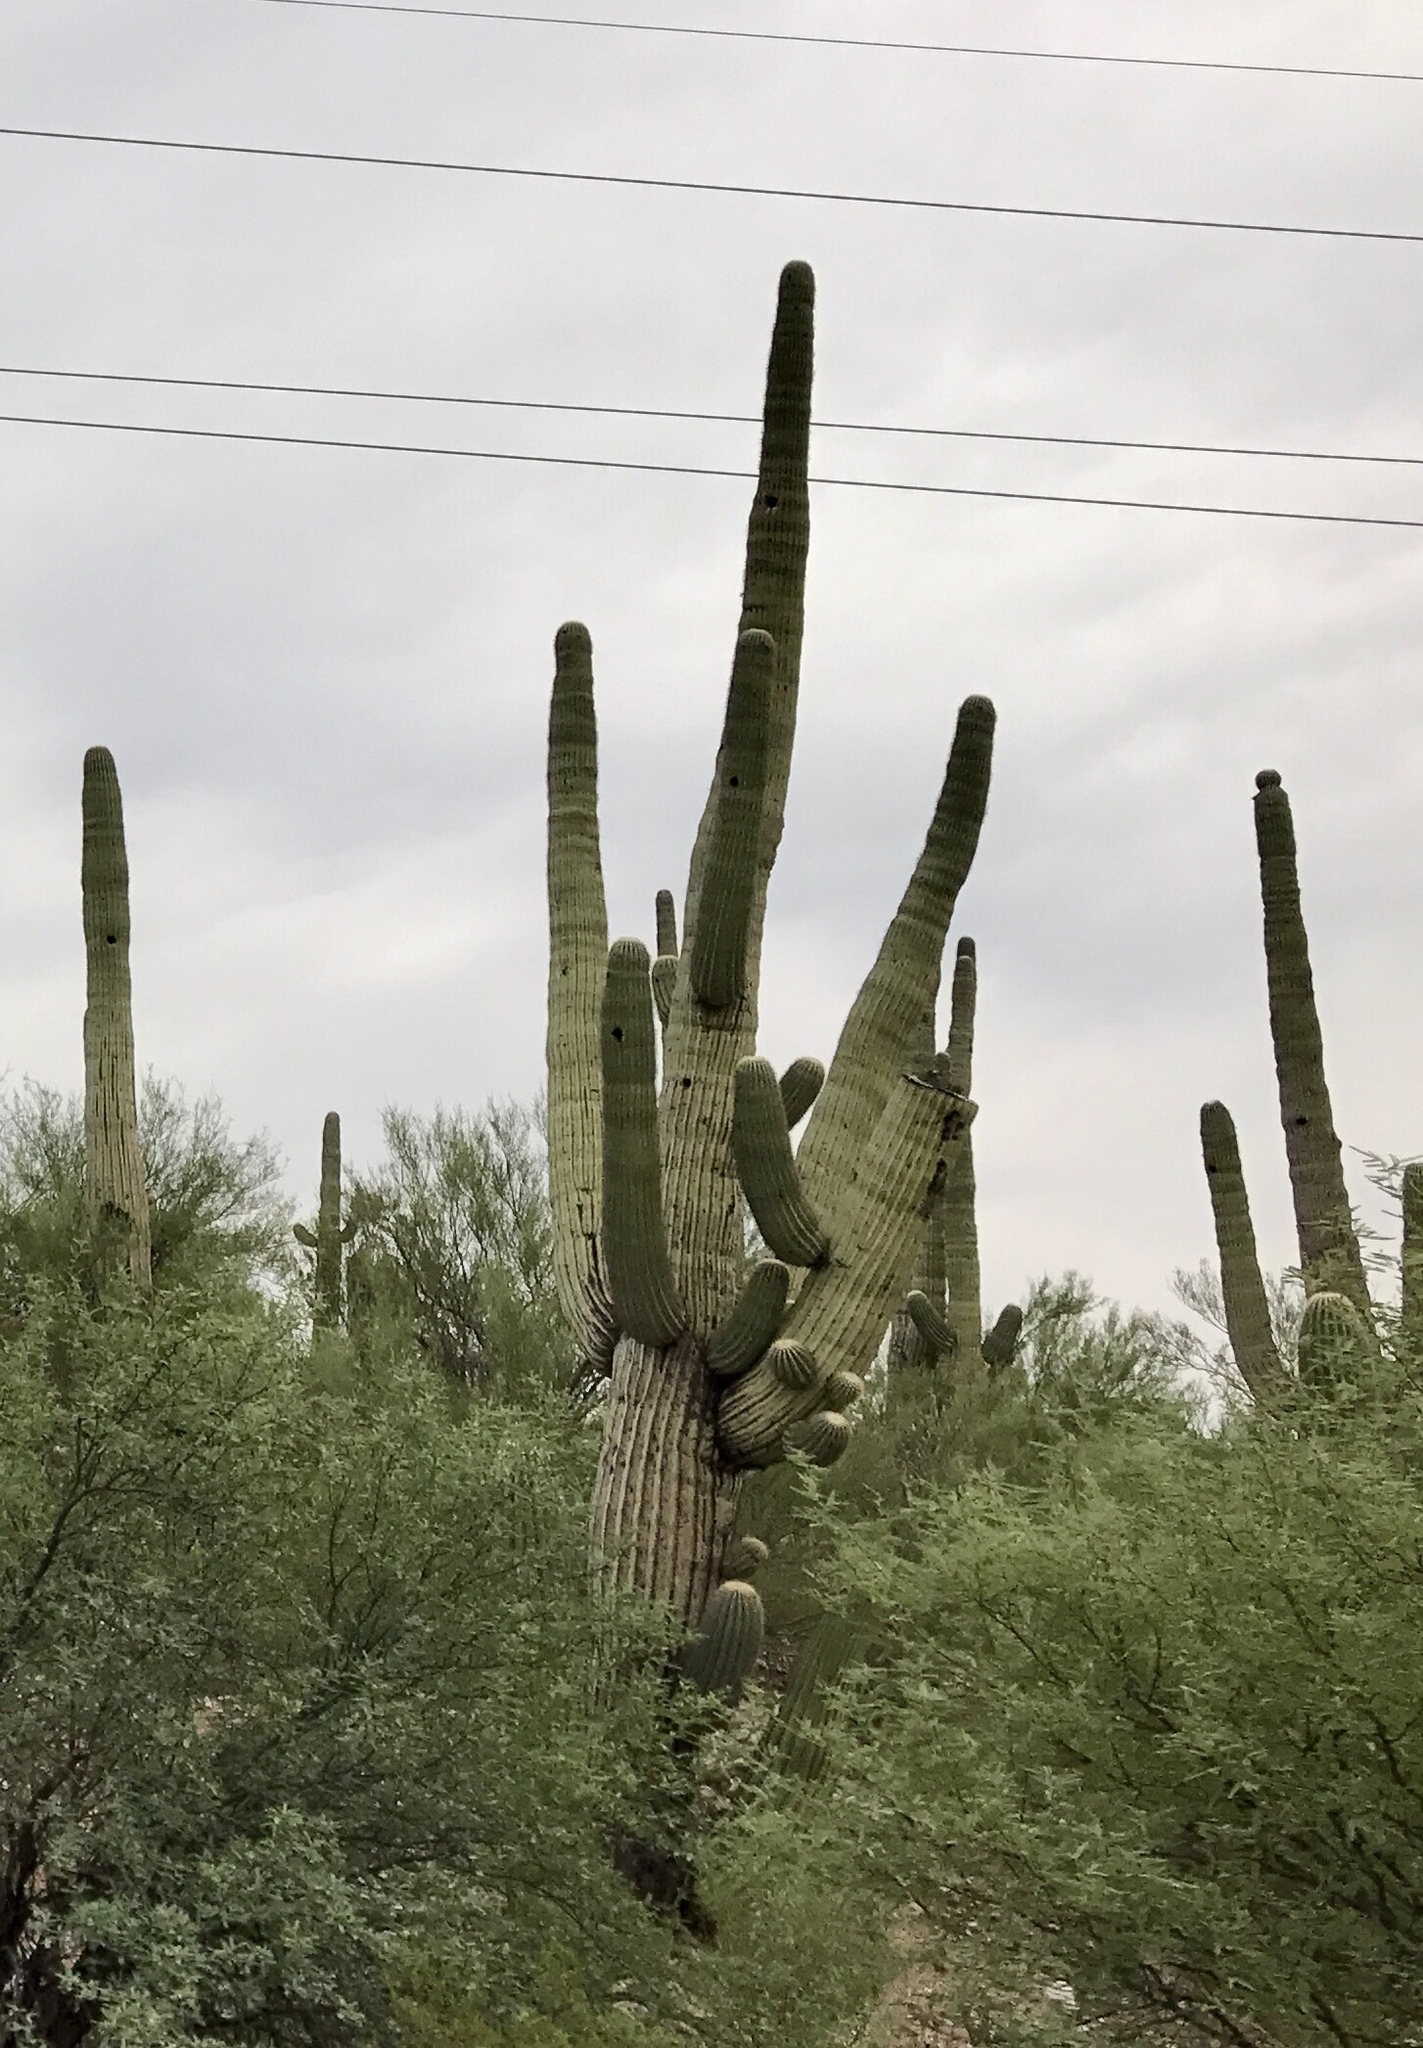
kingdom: Plantae
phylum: Tracheophyta
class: Magnoliopsida
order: Caryophyllales
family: Cactaceae
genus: Carnegiea
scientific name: Carnegiea gigantea
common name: Saguaro
